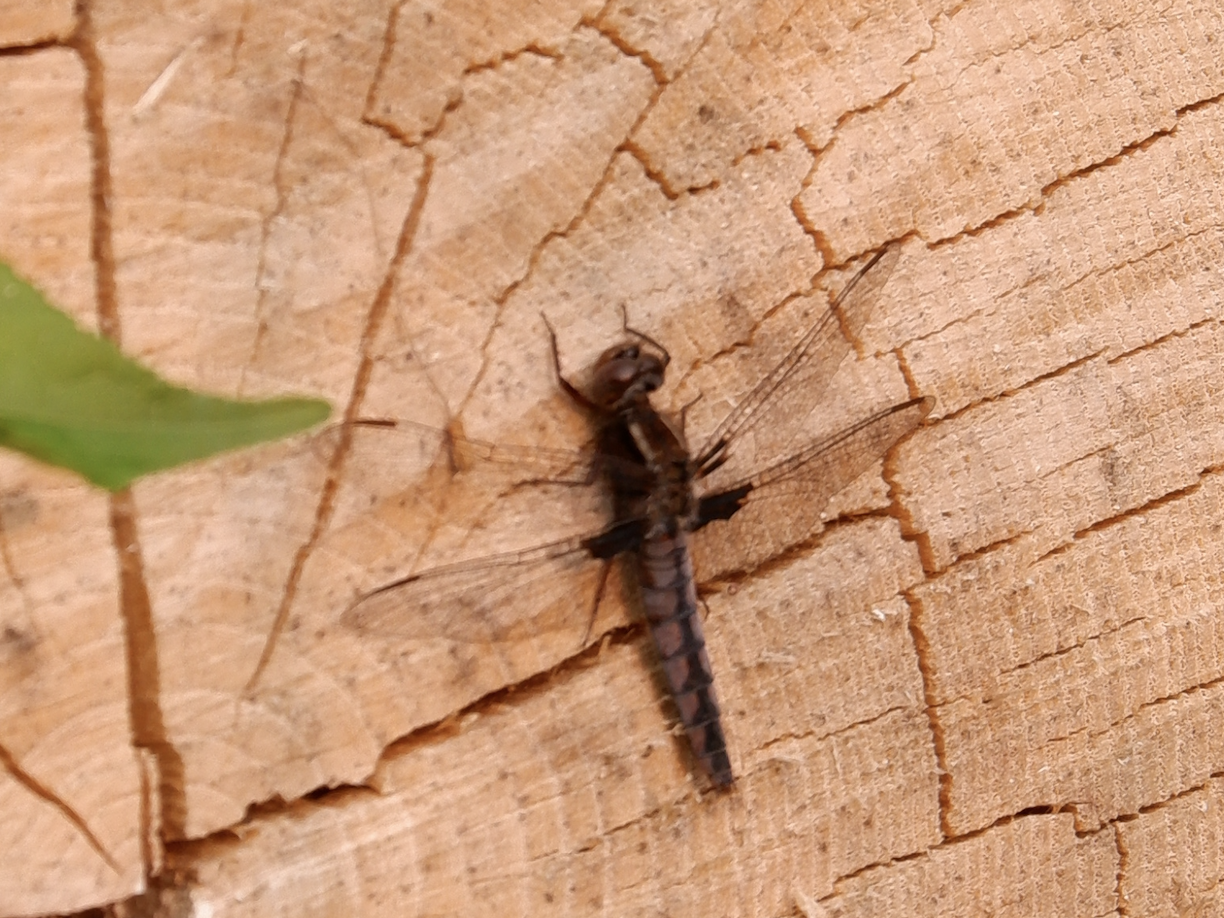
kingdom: Animalia
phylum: Arthropoda
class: Insecta
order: Odonata
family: Libellulidae
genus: Ladona
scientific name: Ladona deplanata
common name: Blue corporal
